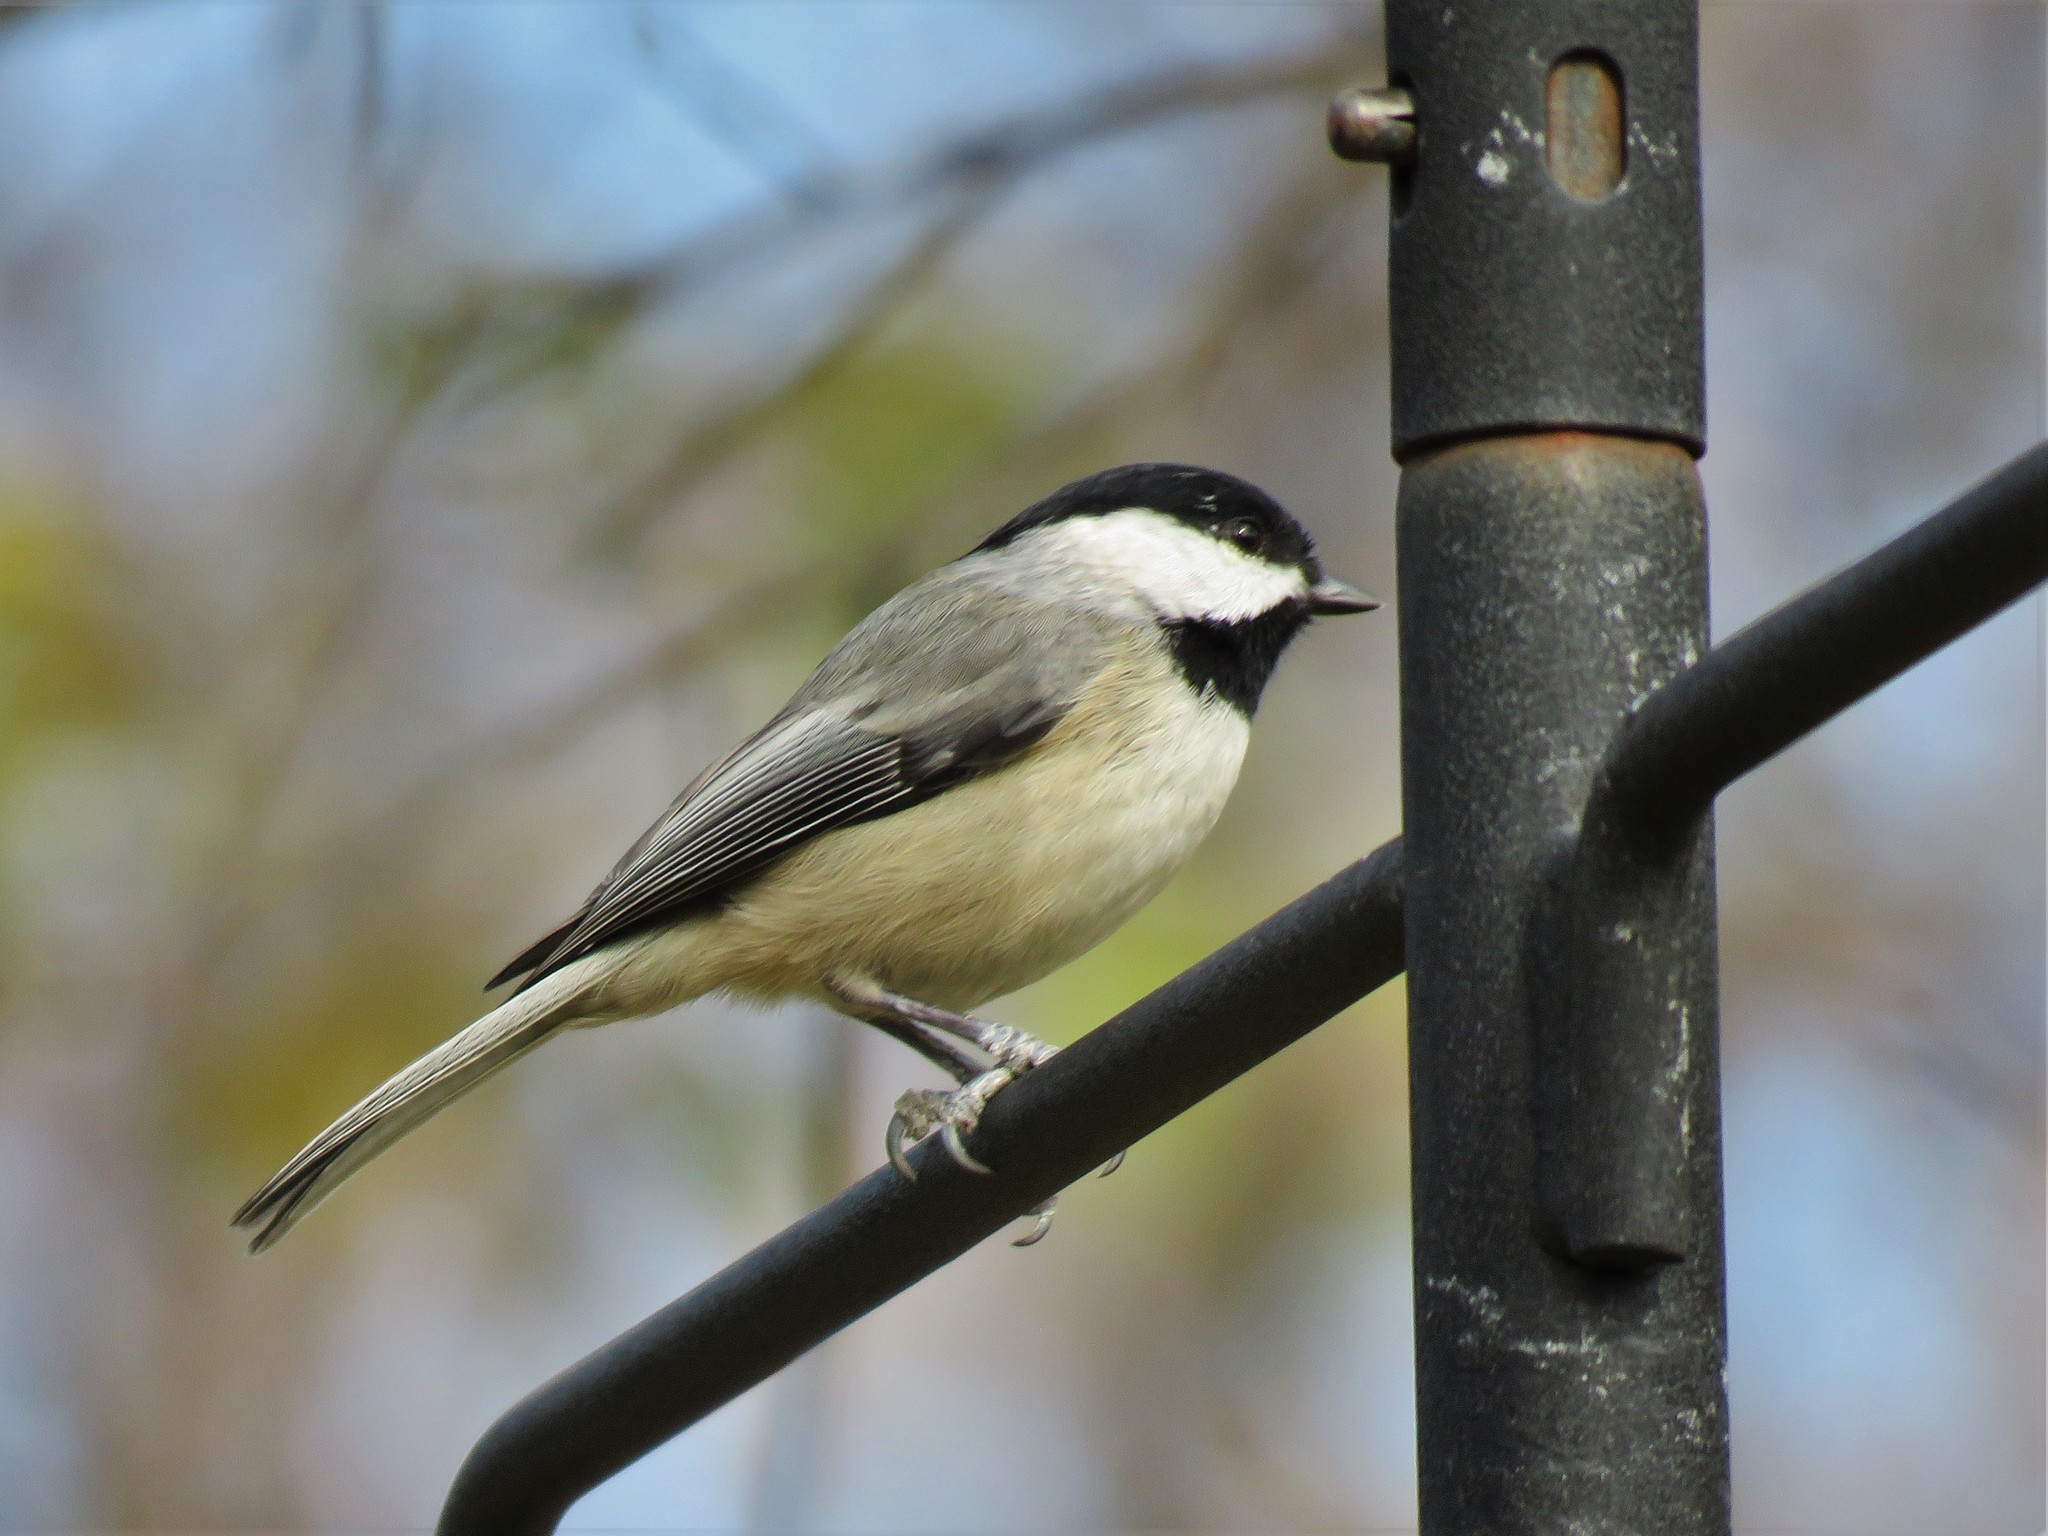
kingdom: Animalia
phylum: Chordata
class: Aves
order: Passeriformes
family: Paridae
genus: Poecile
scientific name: Poecile carolinensis
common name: Carolina chickadee
